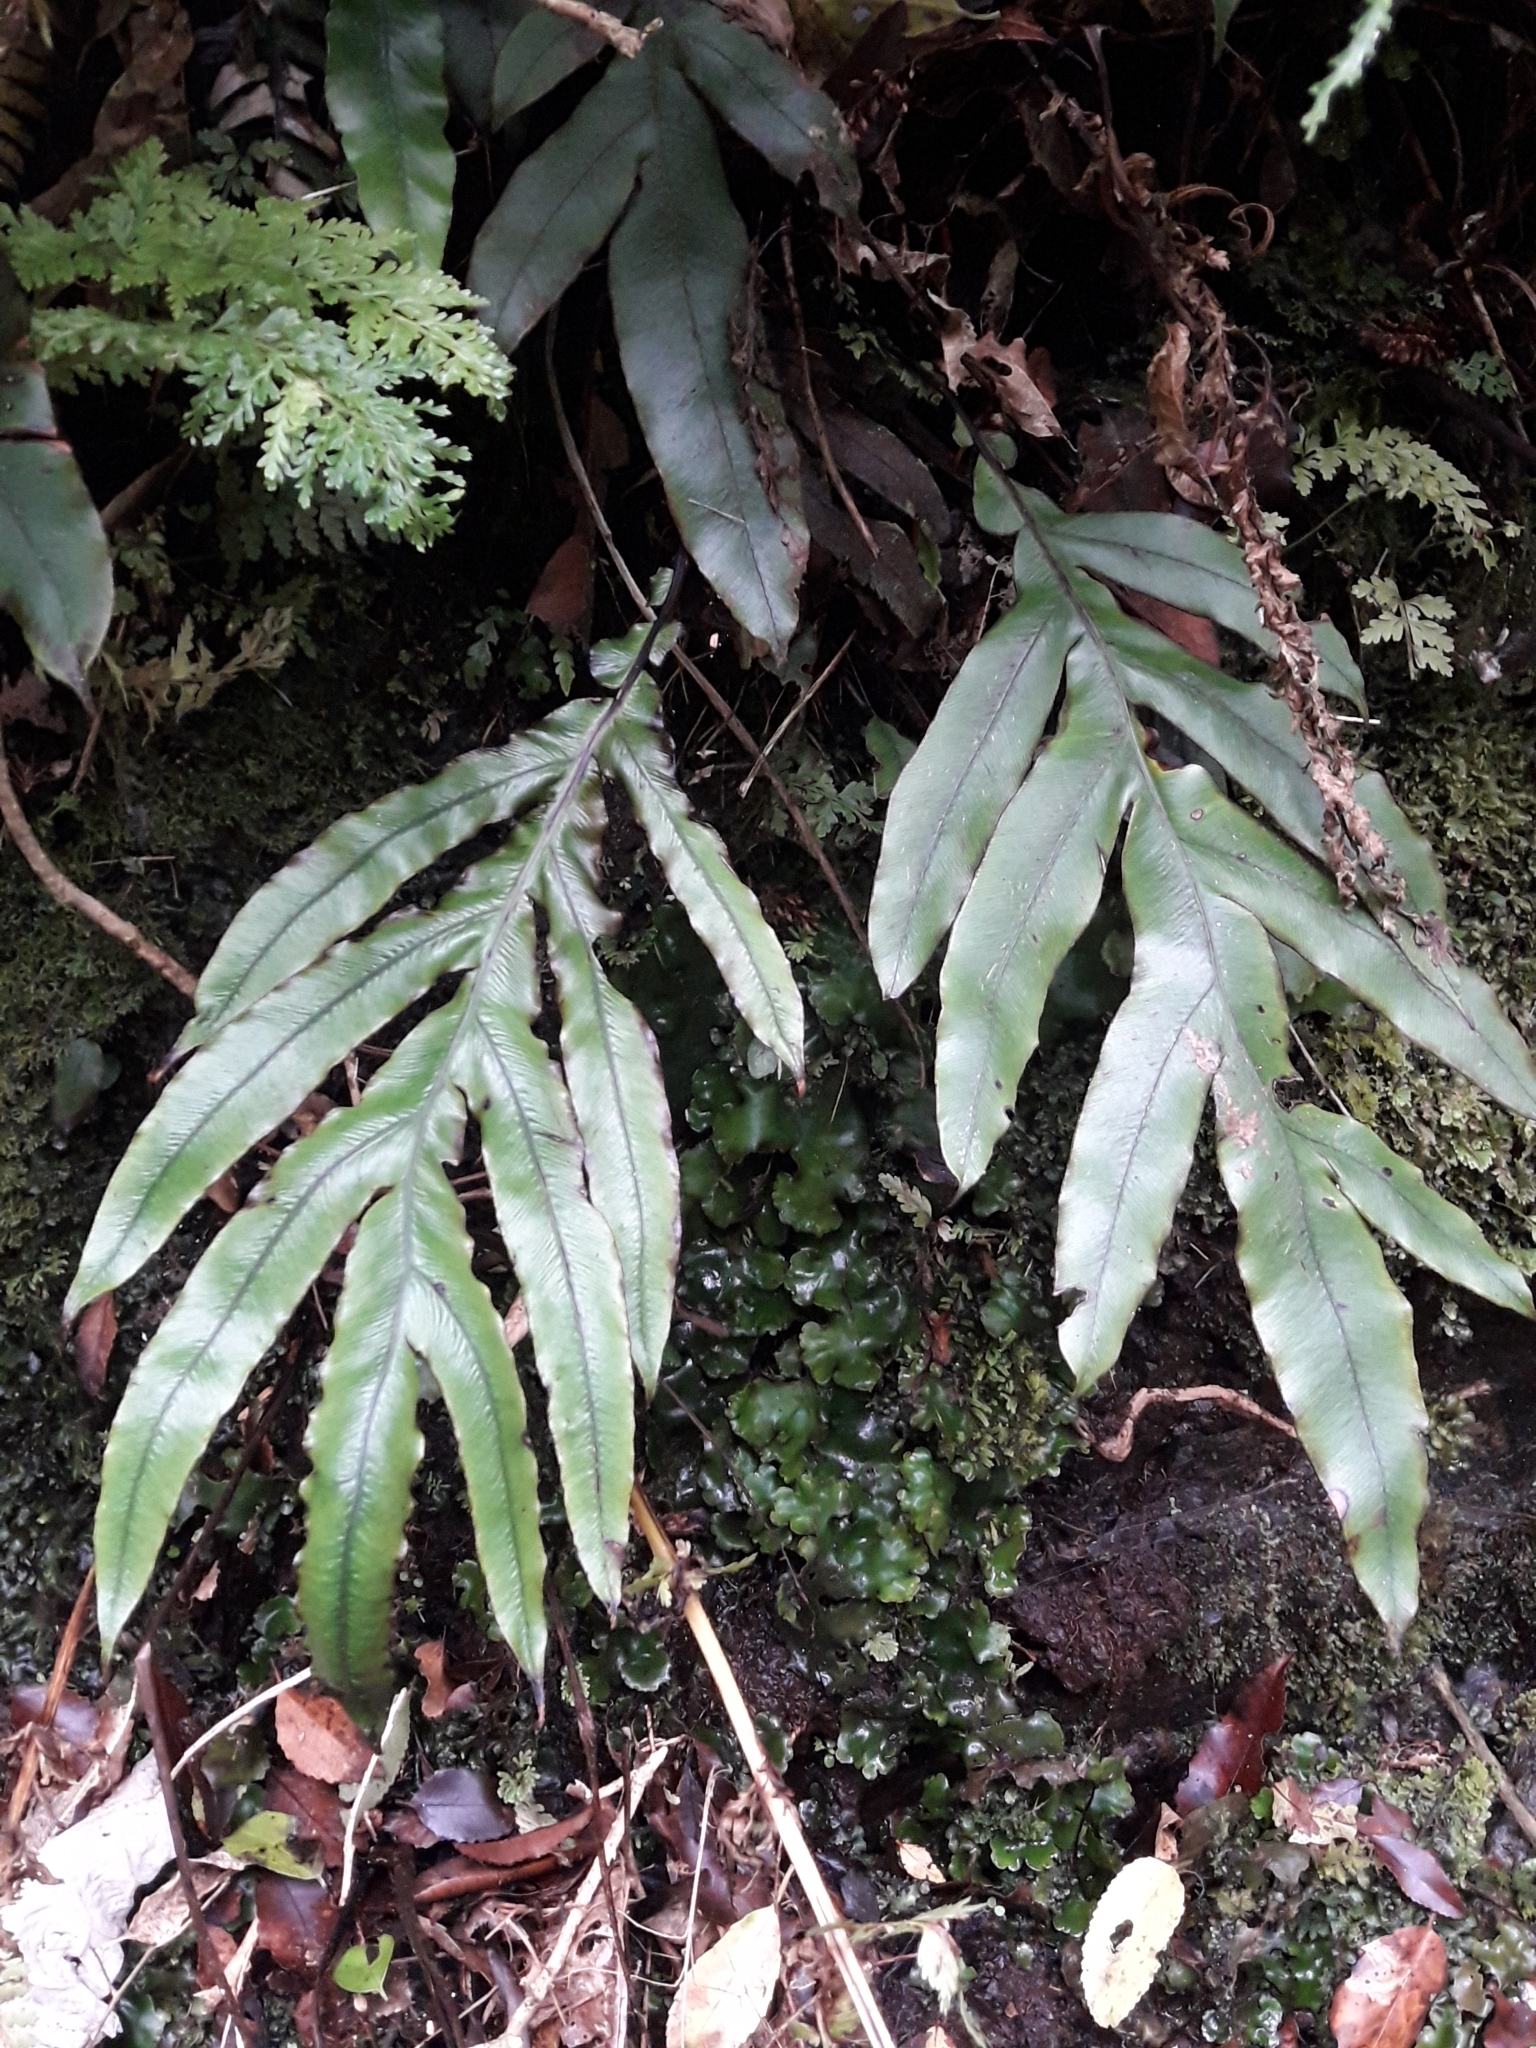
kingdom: Plantae
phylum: Tracheophyta
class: Polypodiopsida
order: Polypodiales
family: Blechnaceae
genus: Austroblechnum
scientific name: Austroblechnum colensoi
